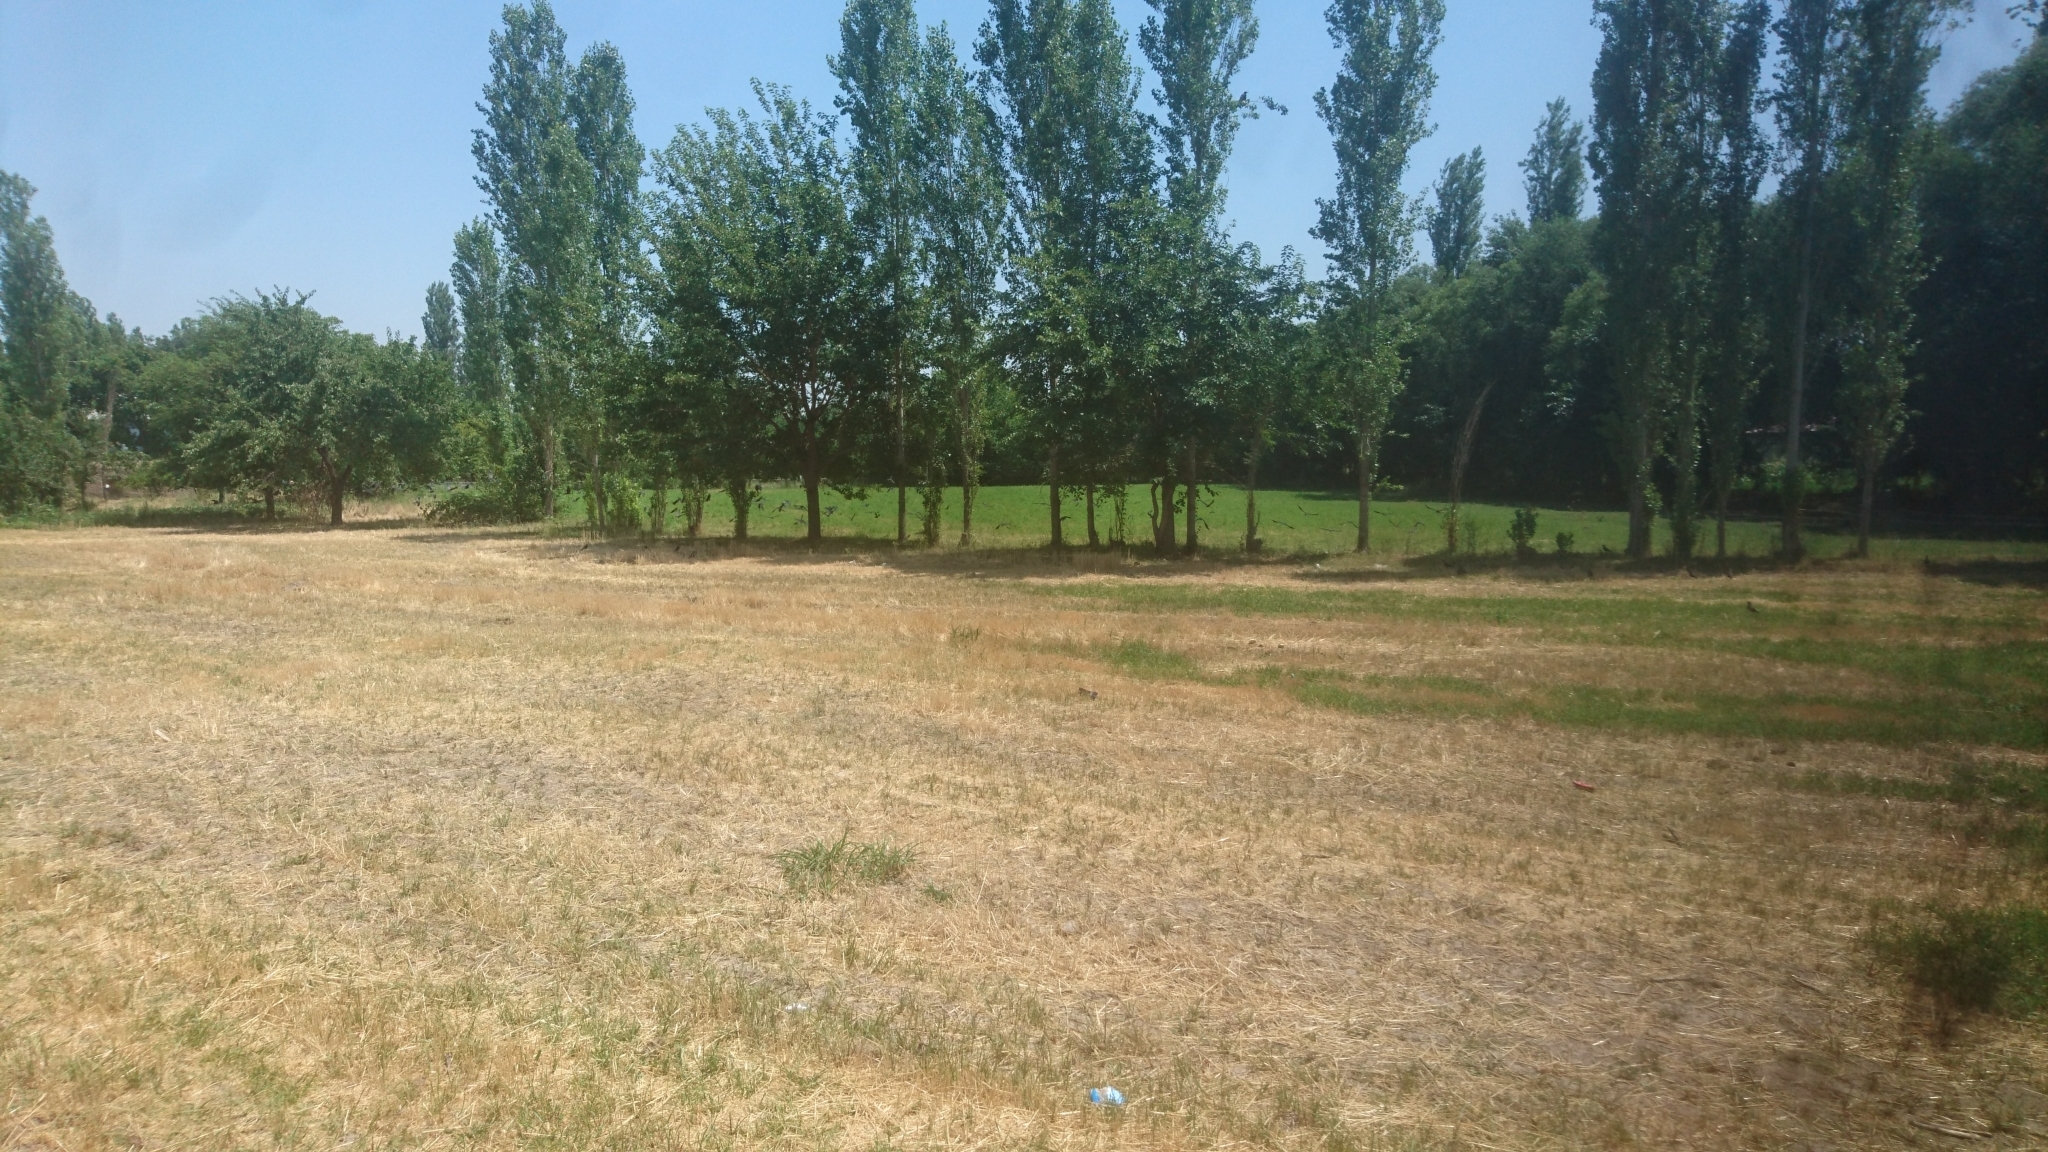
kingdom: Animalia
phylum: Chordata
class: Aves
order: Passeriformes
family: Corvidae
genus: Corvus
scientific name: Corvus frugilegus
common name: Rook
